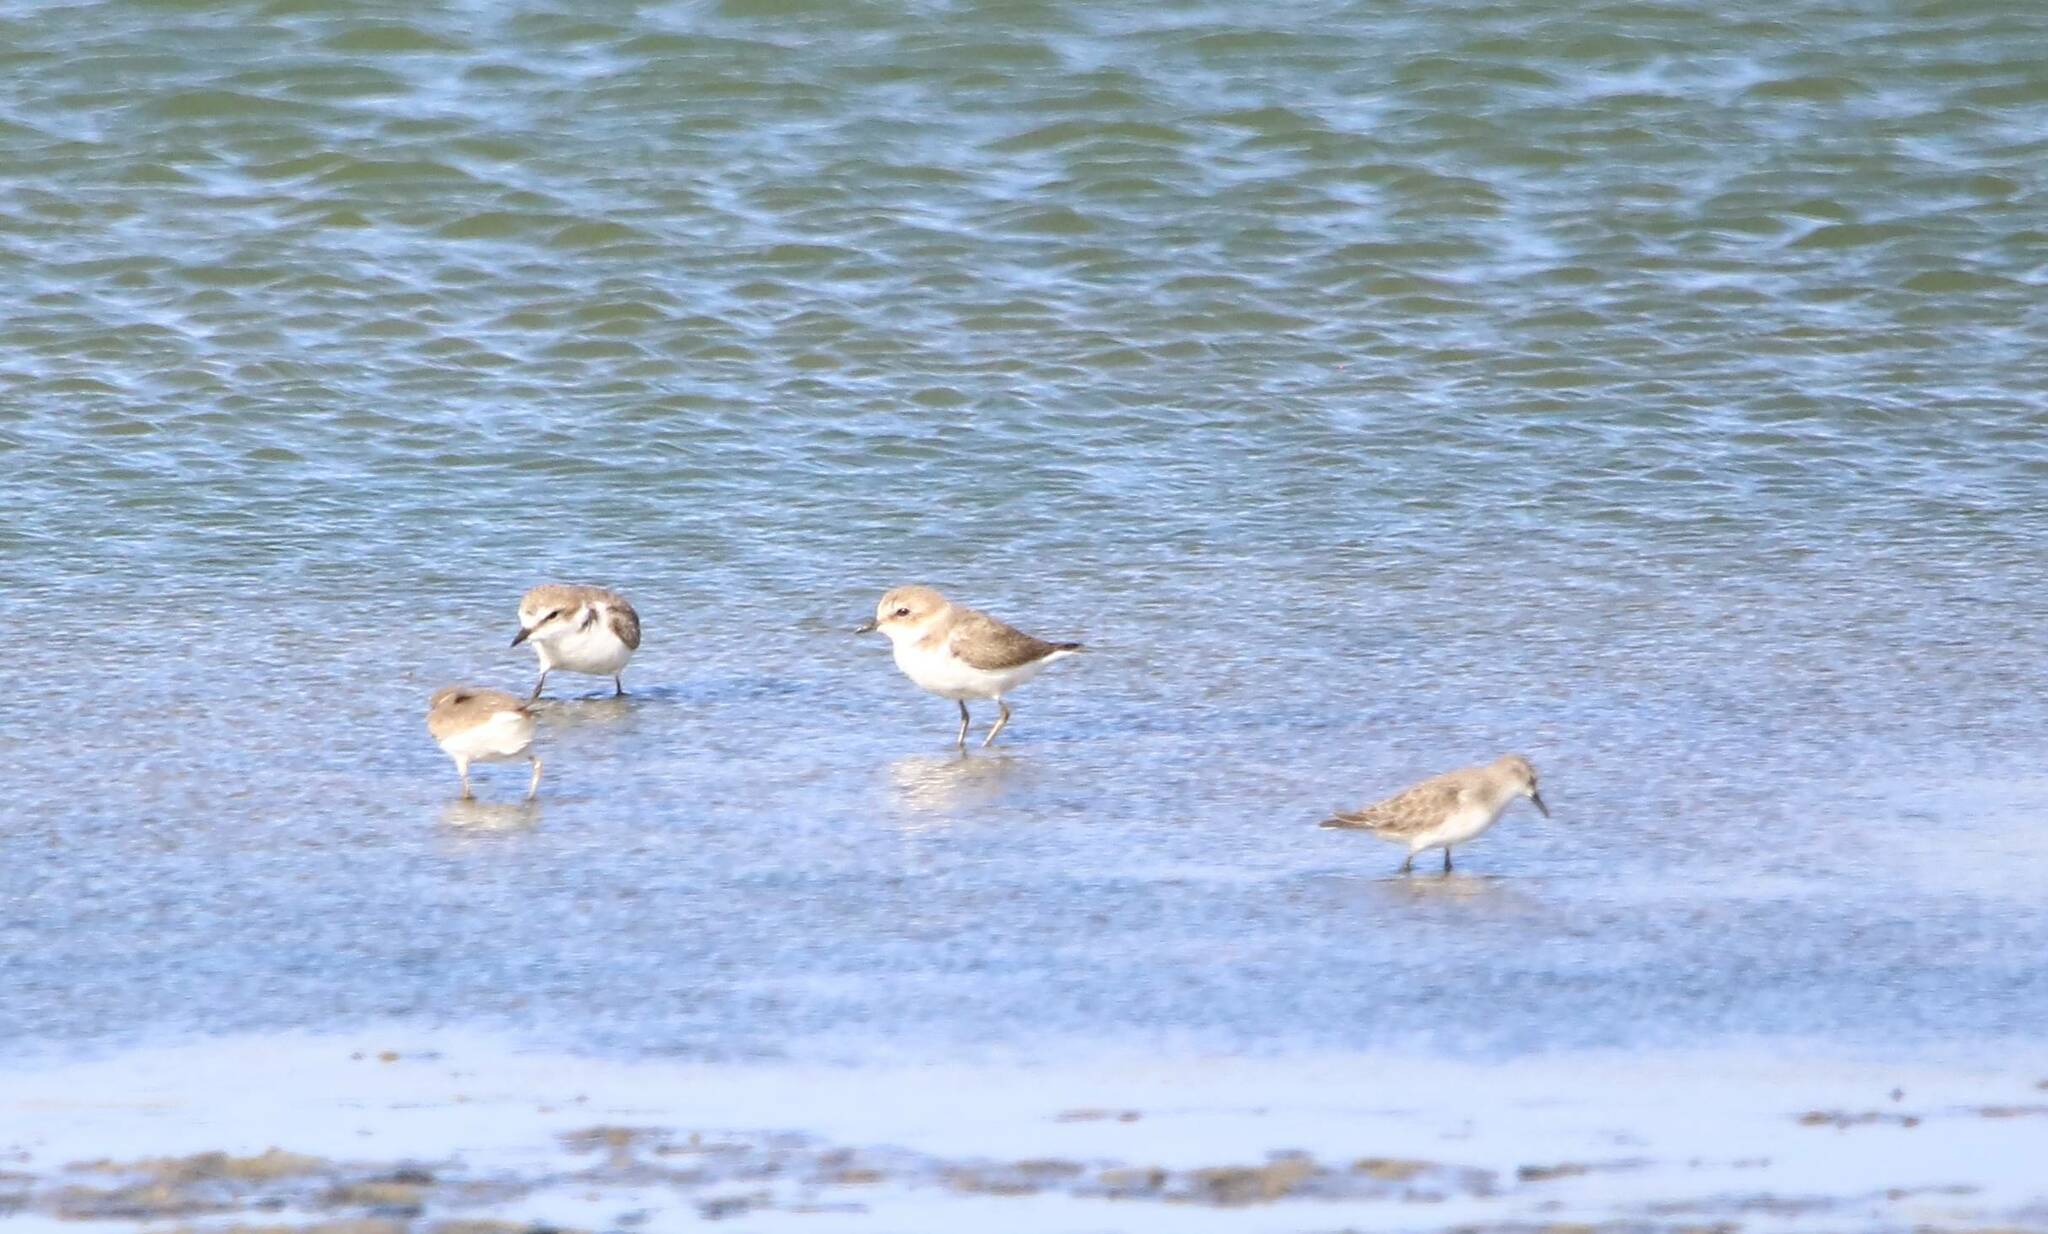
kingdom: Animalia
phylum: Chordata
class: Aves
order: Charadriiformes
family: Charadriidae
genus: Charadrius
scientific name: Charadrius alexandrinus
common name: Kentish plover
